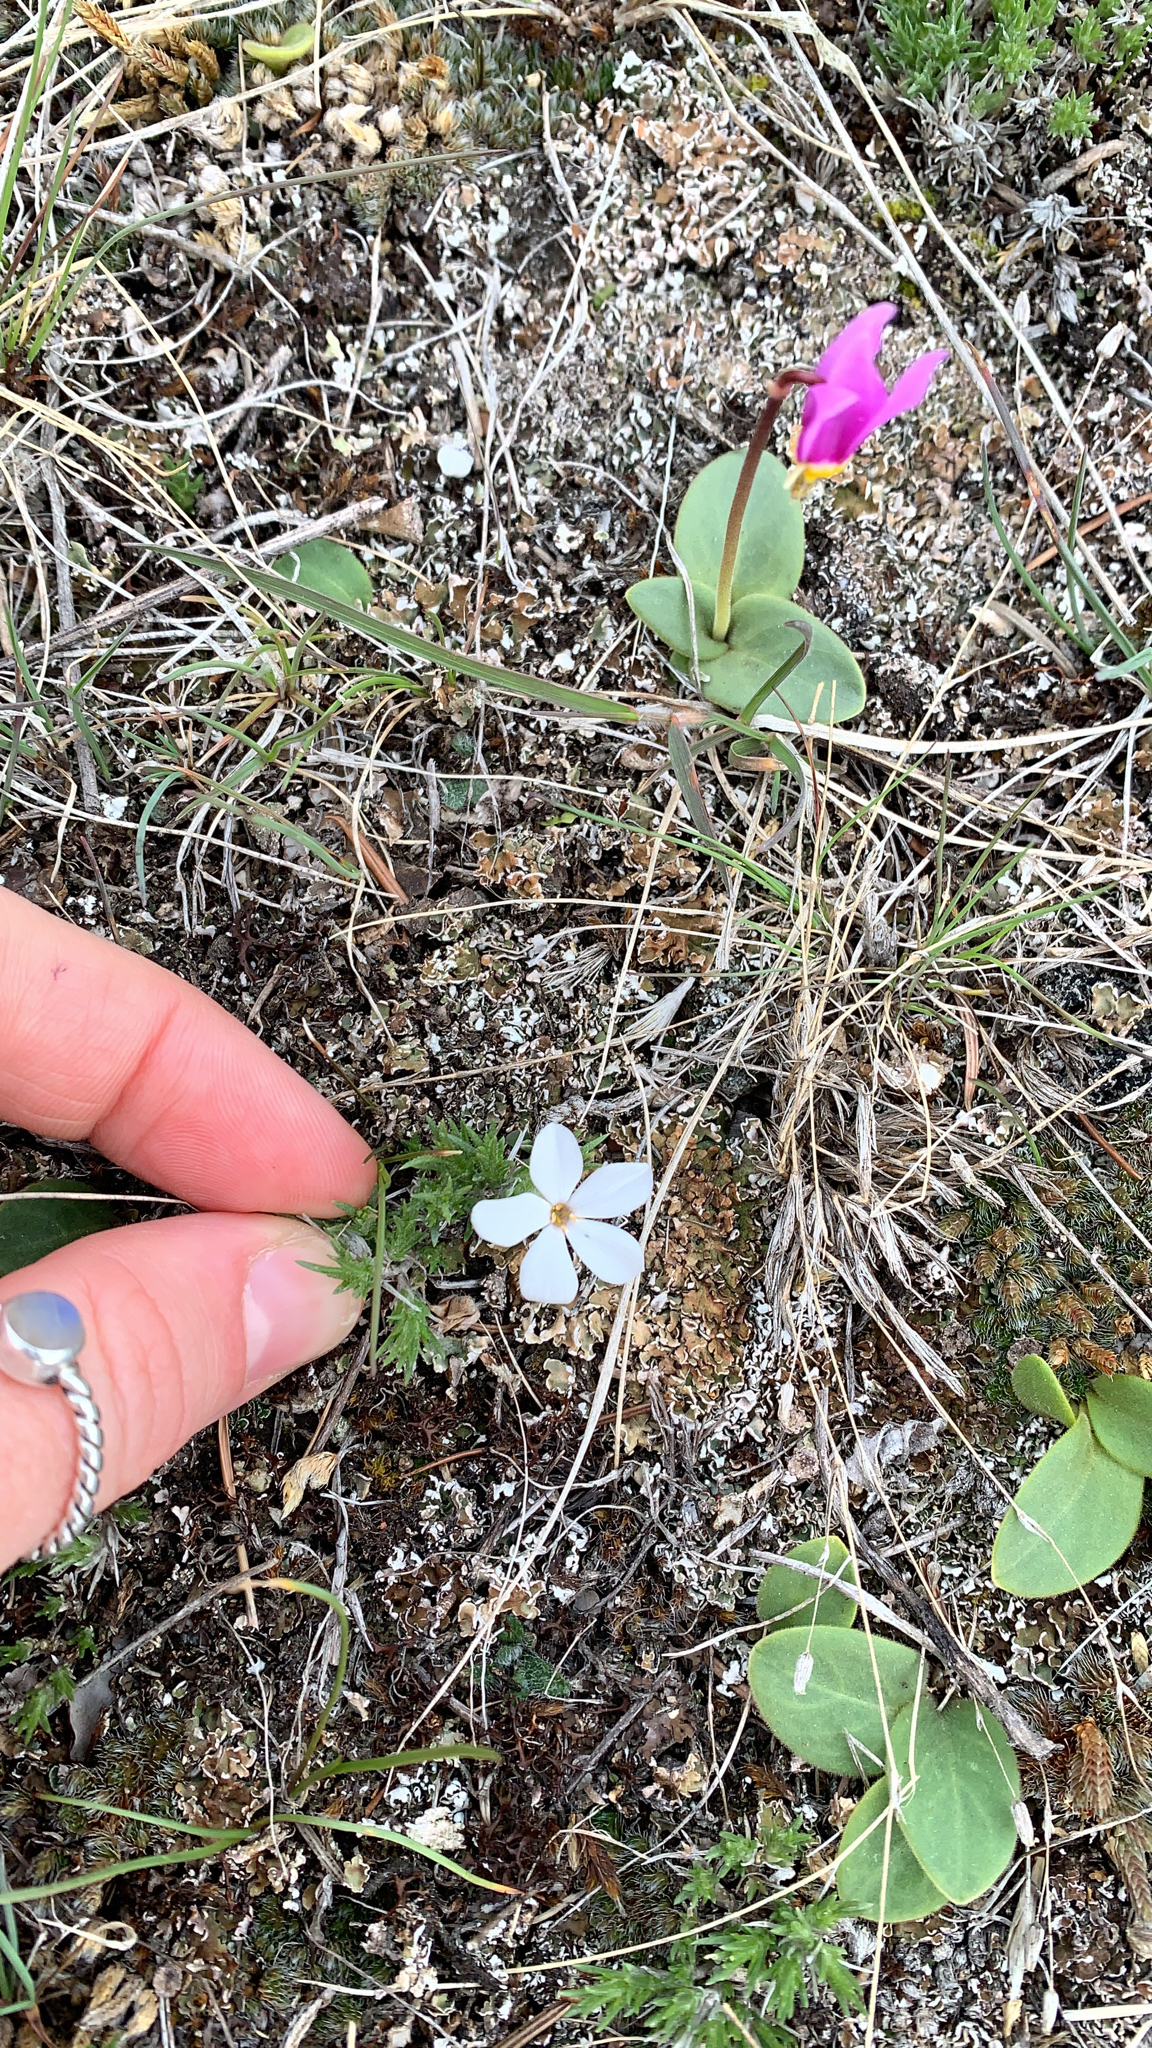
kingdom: Plantae
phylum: Tracheophyta
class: Magnoliopsida
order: Ericales
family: Polemoniaceae
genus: Phlox
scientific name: Phlox hoodii
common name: Moss phlox
